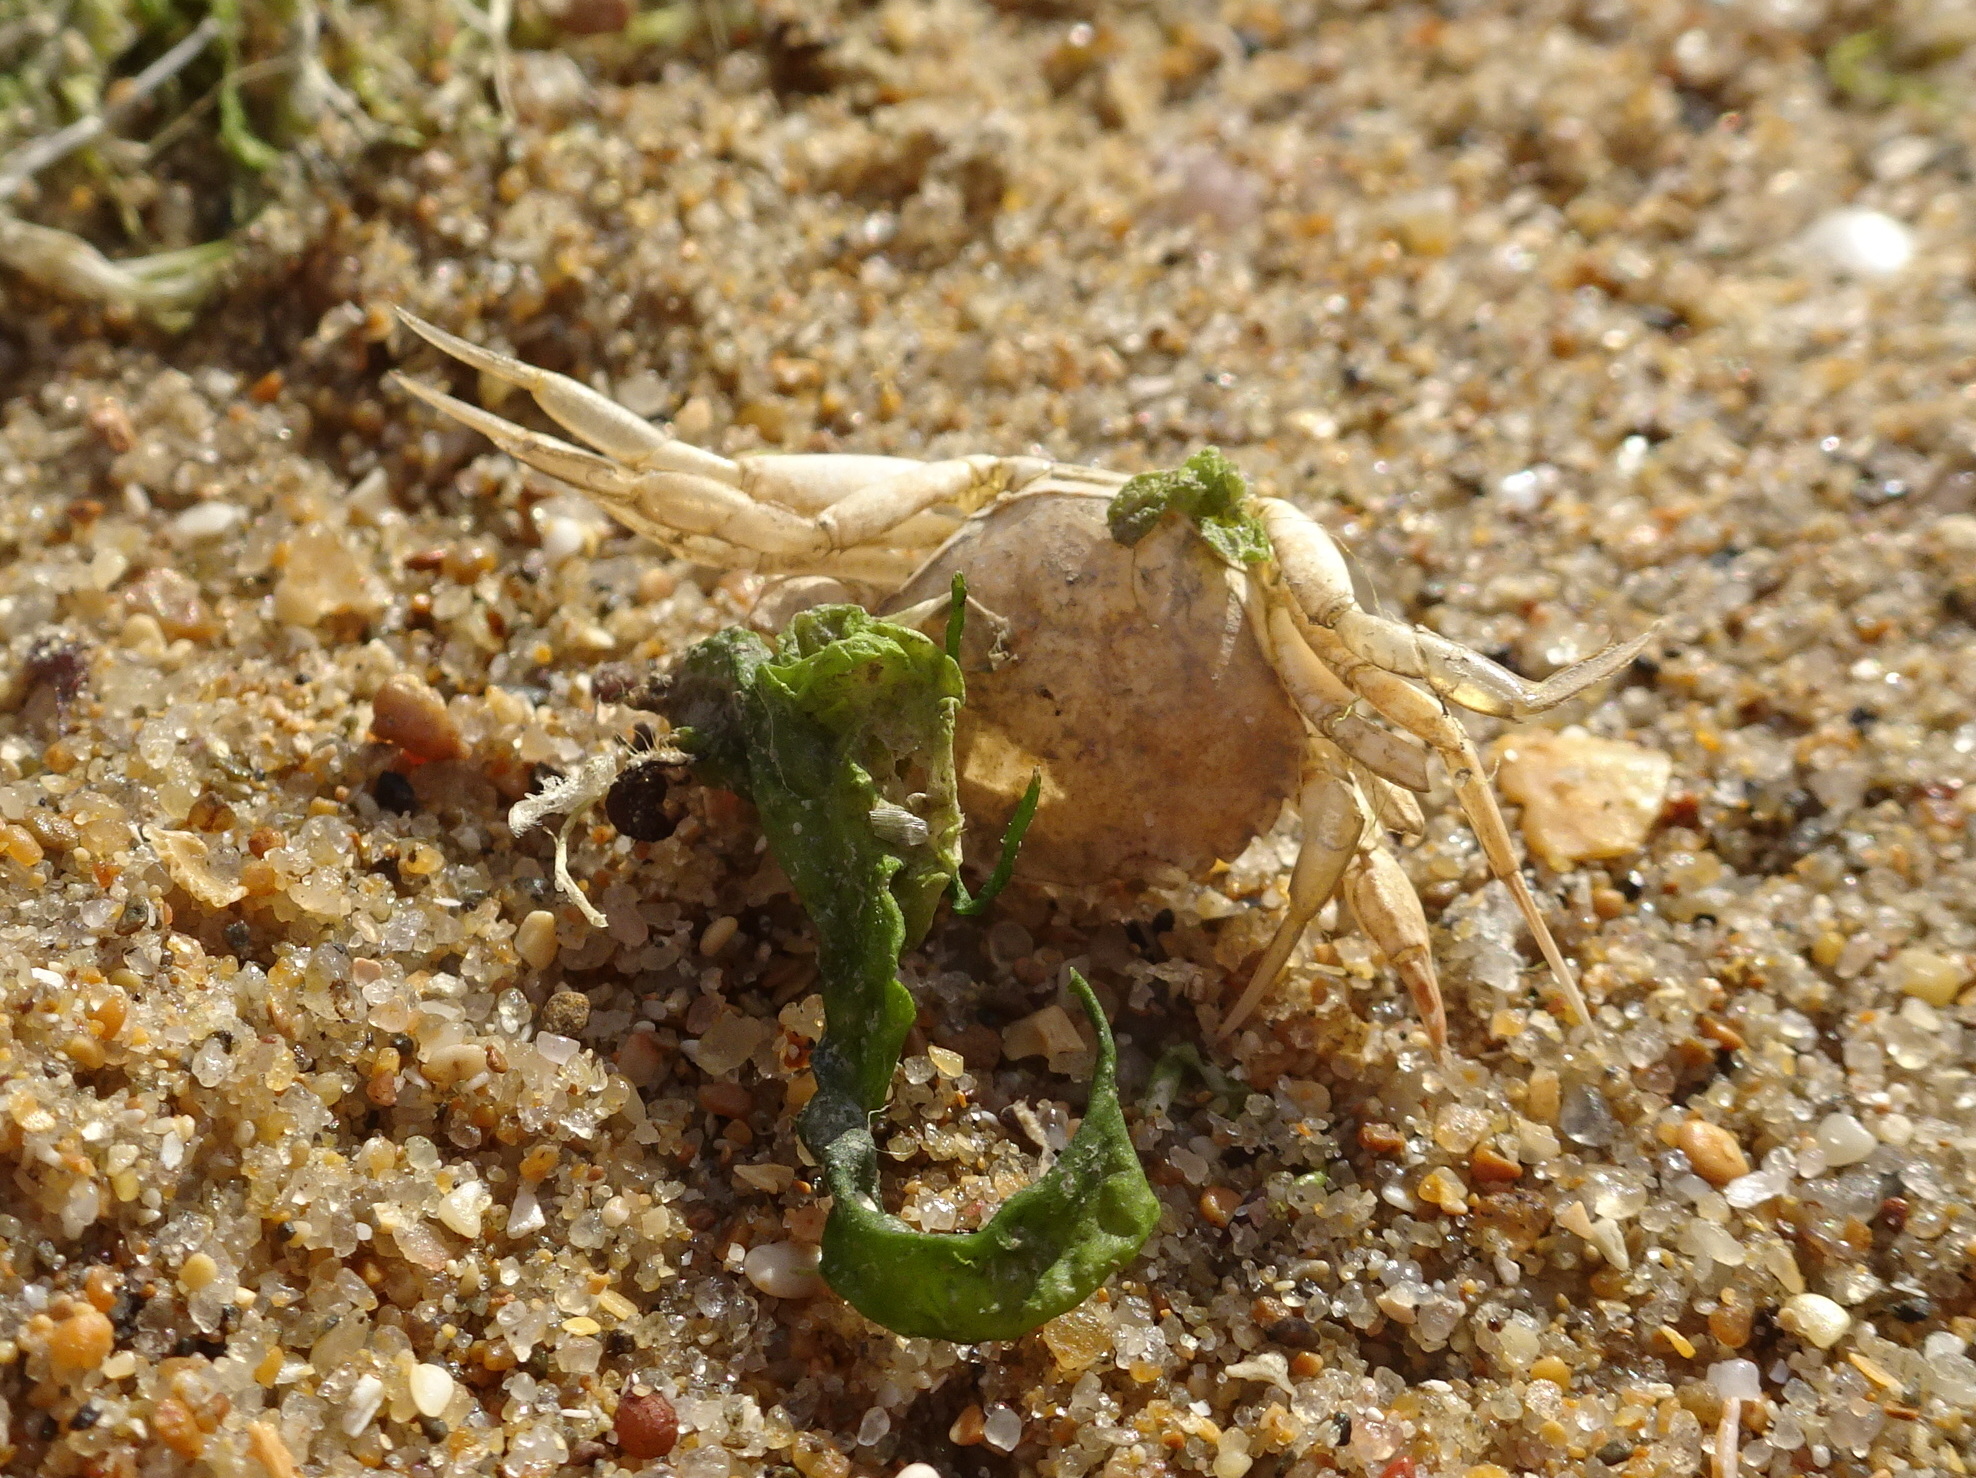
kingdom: Animalia
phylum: Arthropoda
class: Malacostraca
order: Decapoda
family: Carcinidae
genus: Carcinus
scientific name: Carcinus maenas
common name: European green crab
